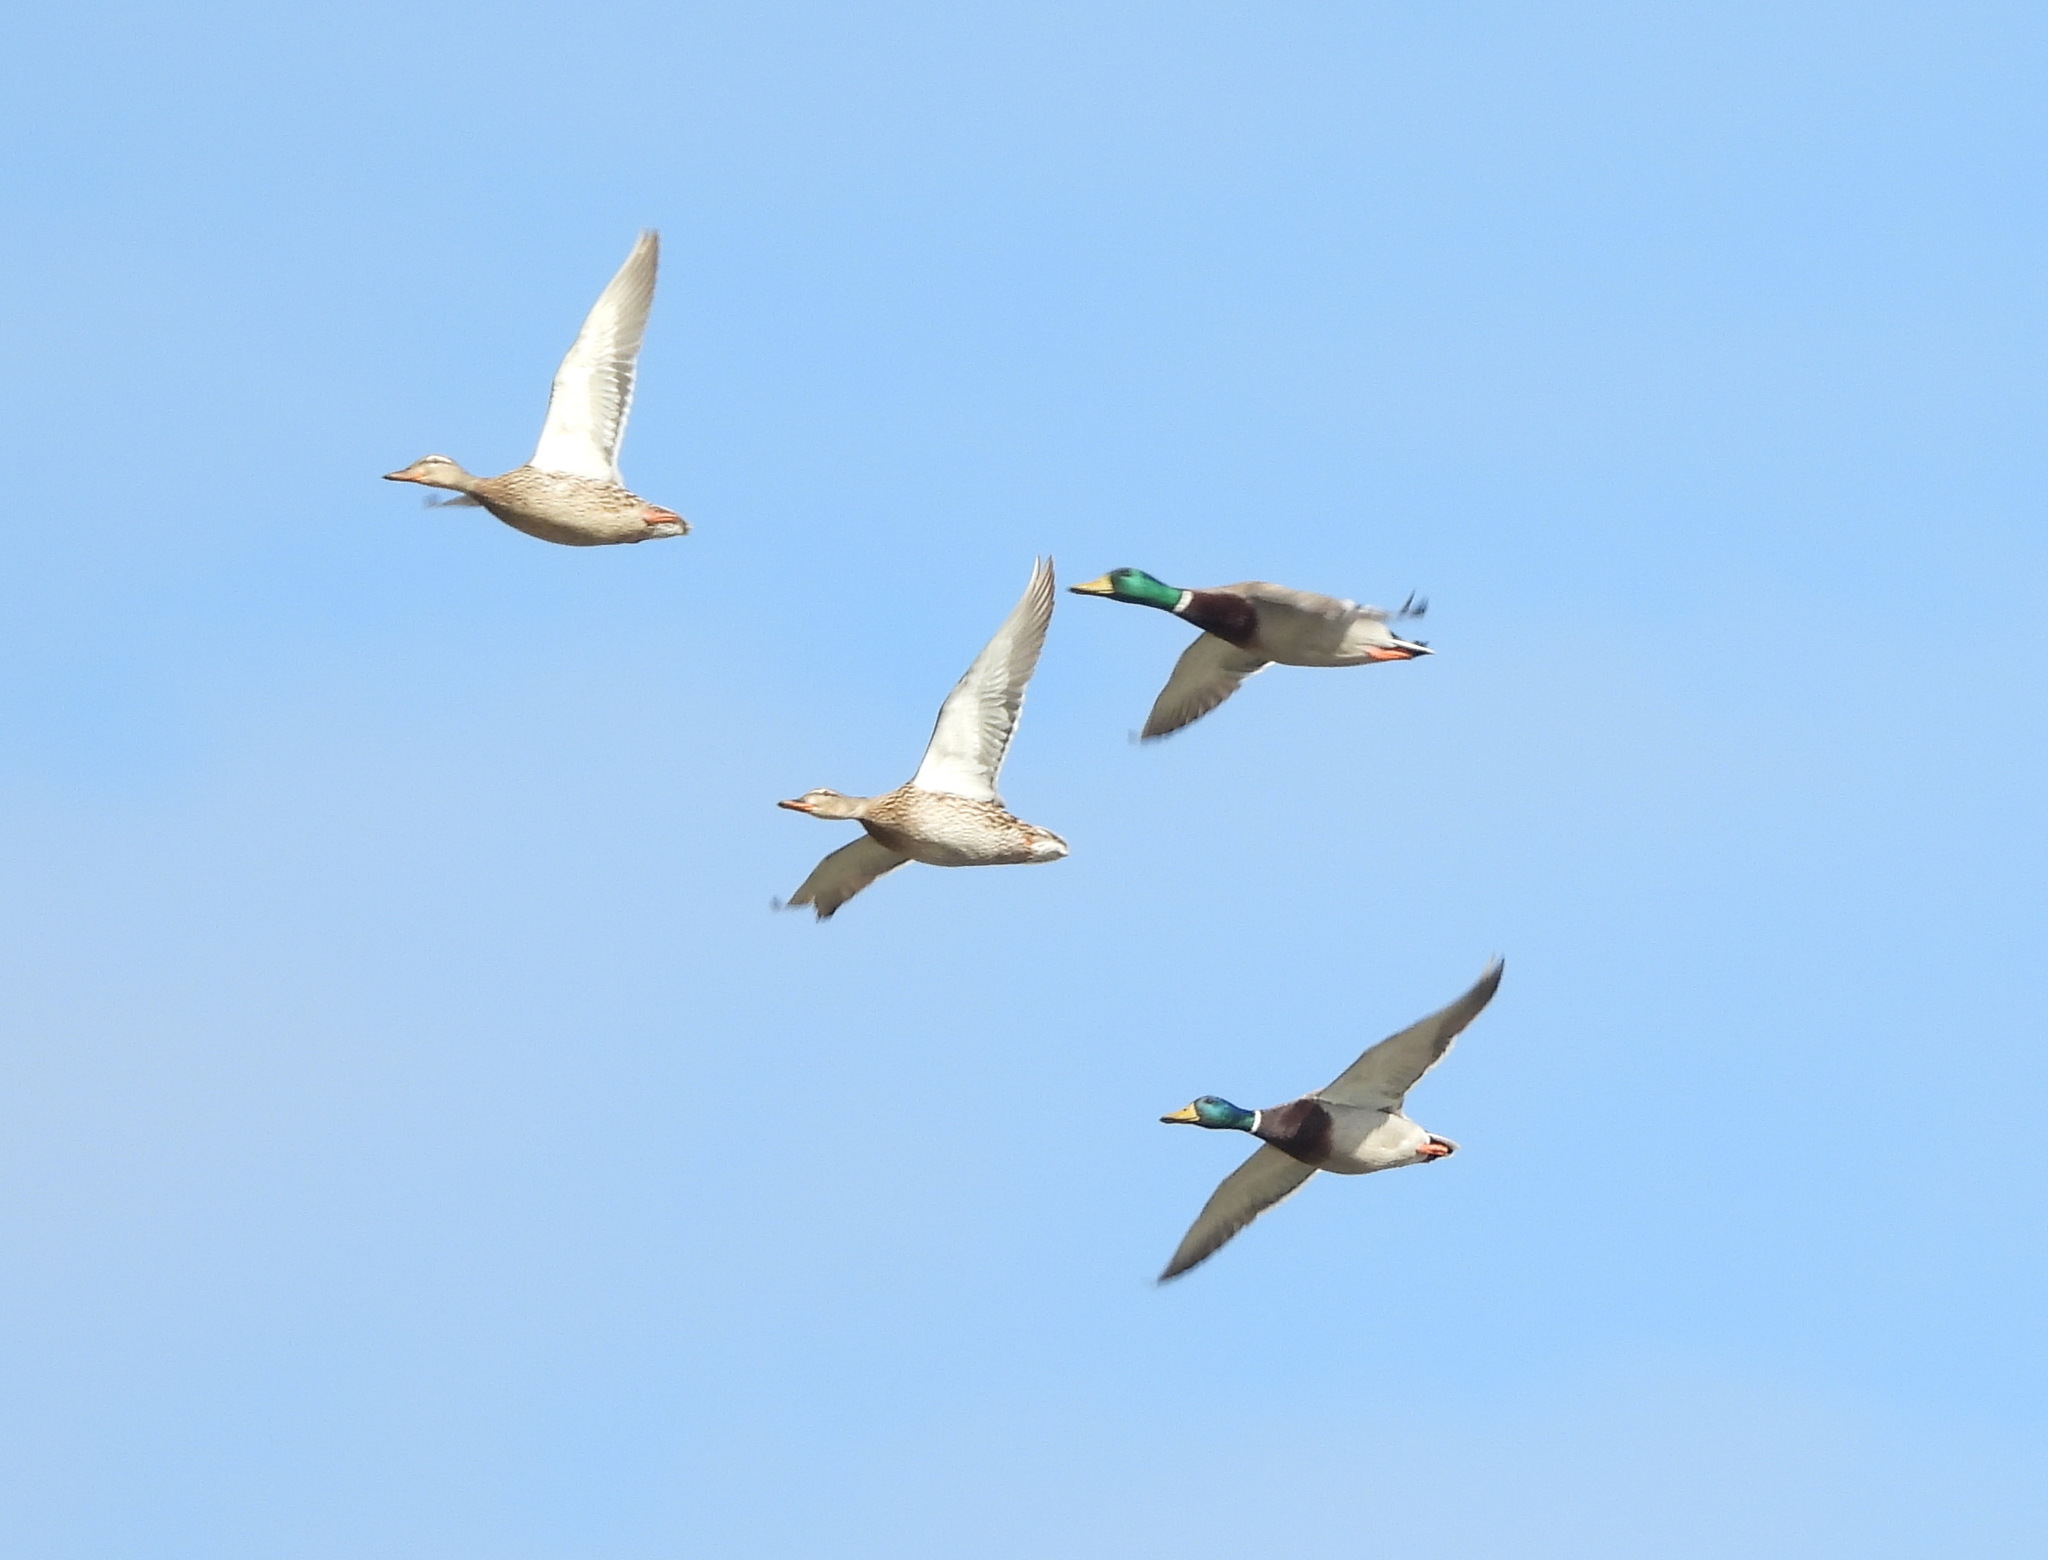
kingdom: Animalia
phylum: Chordata
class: Aves
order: Anseriformes
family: Anatidae
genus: Anas
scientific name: Anas platyrhynchos
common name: Mallard
